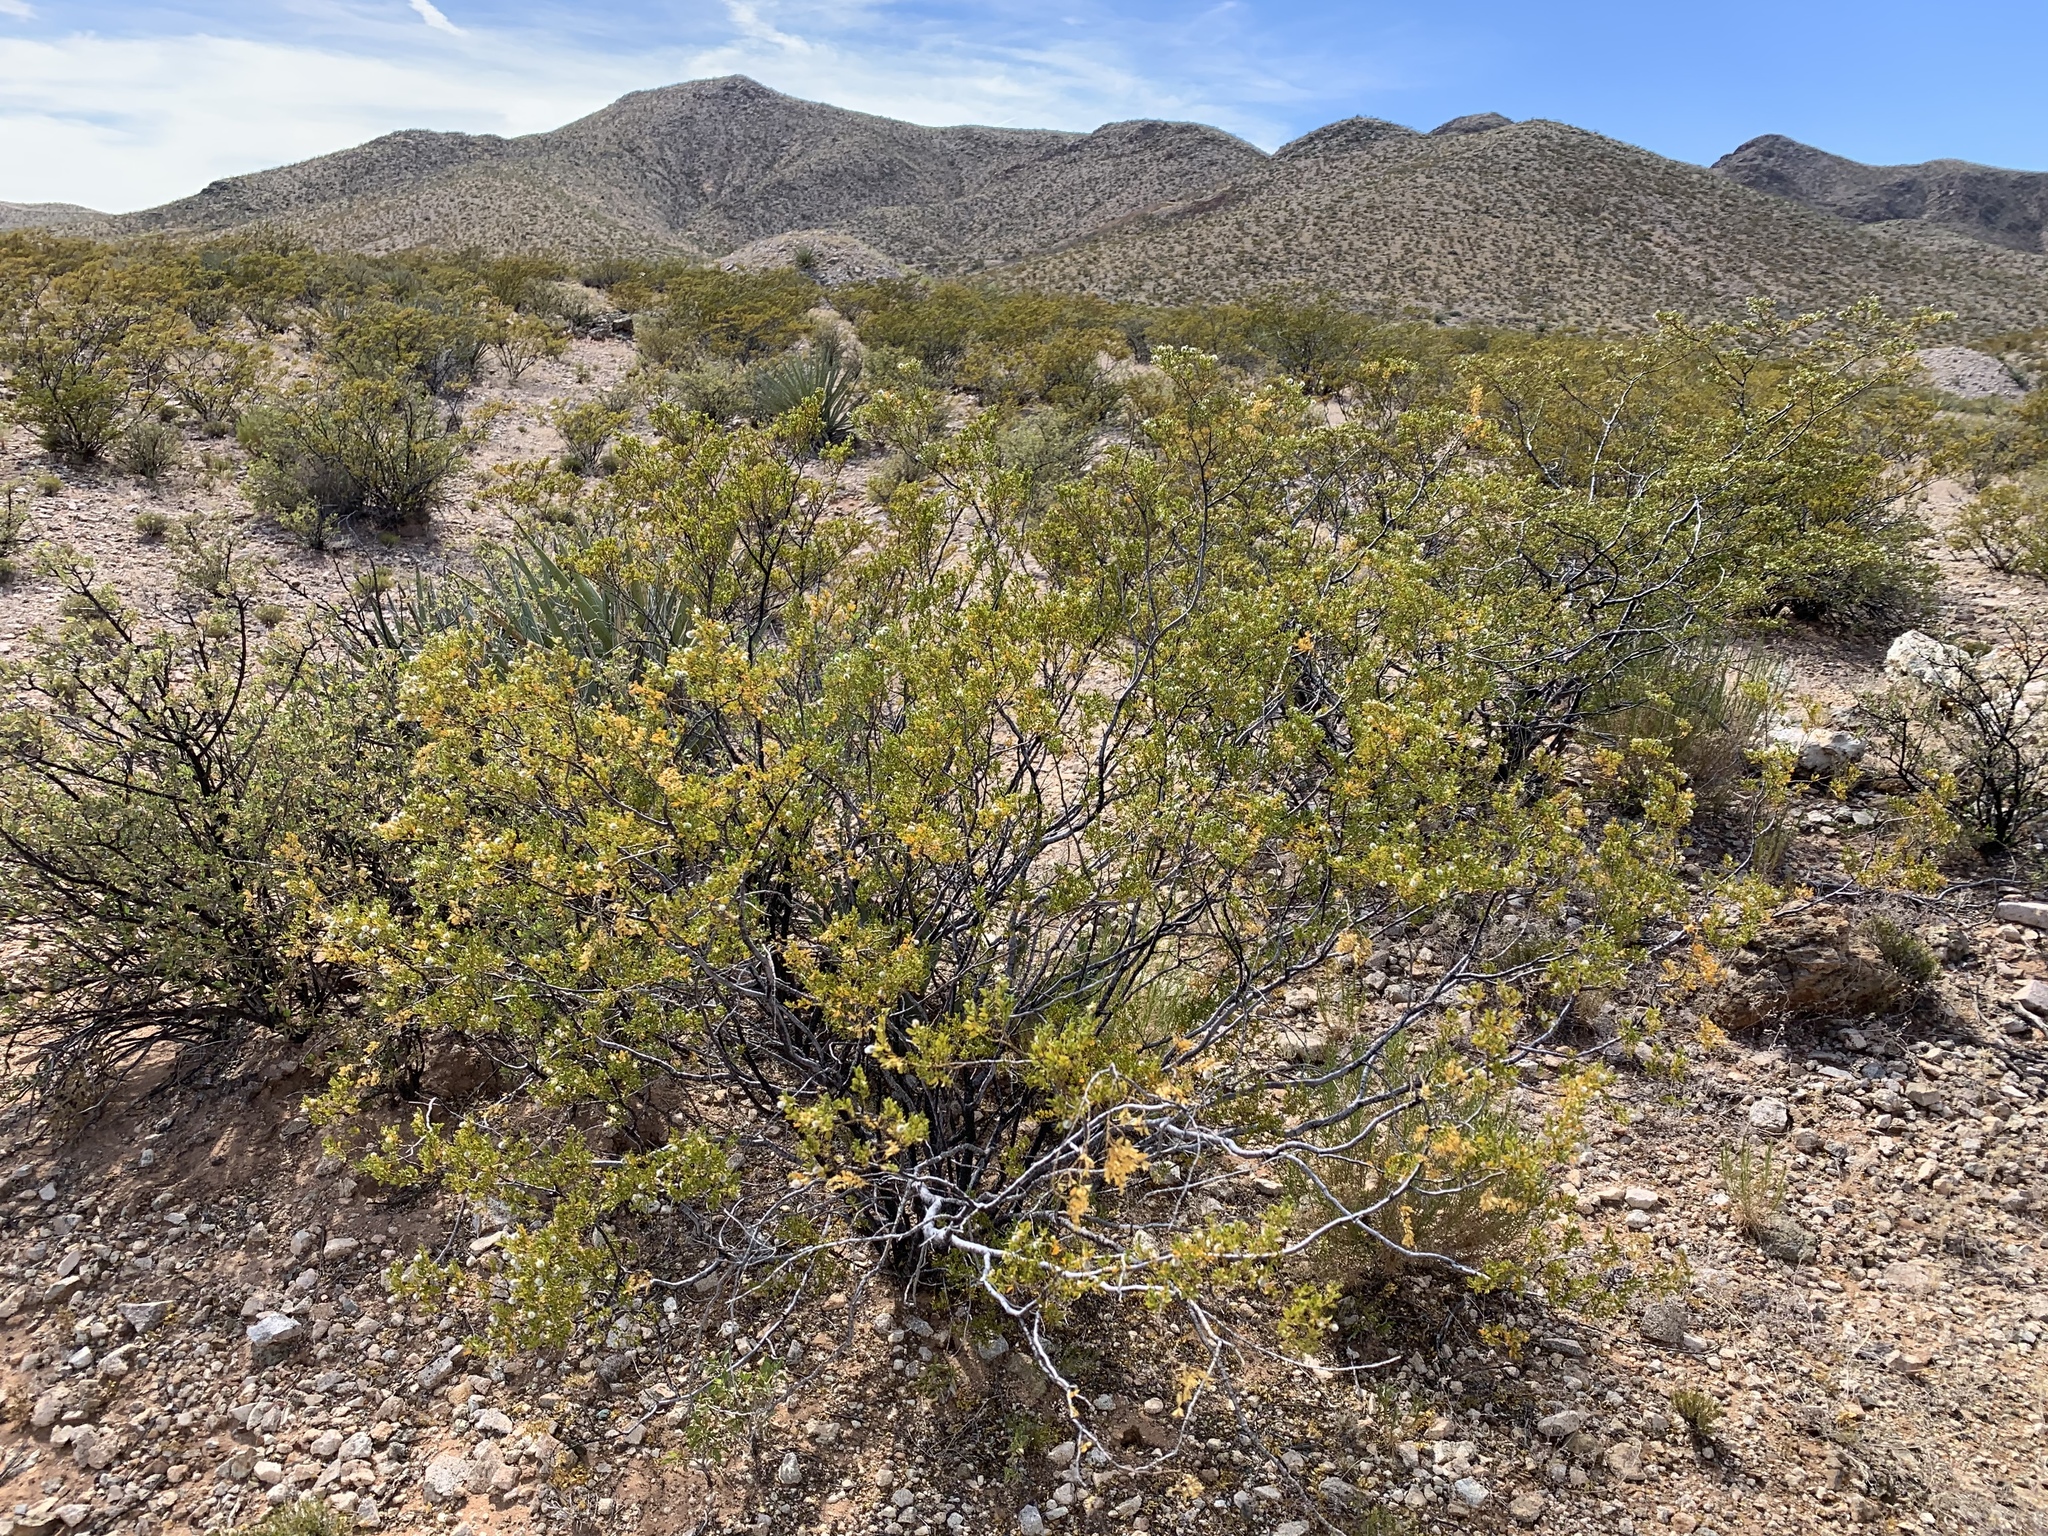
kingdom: Plantae
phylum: Tracheophyta
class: Magnoliopsida
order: Zygophyllales
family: Zygophyllaceae
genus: Larrea
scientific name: Larrea tridentata
